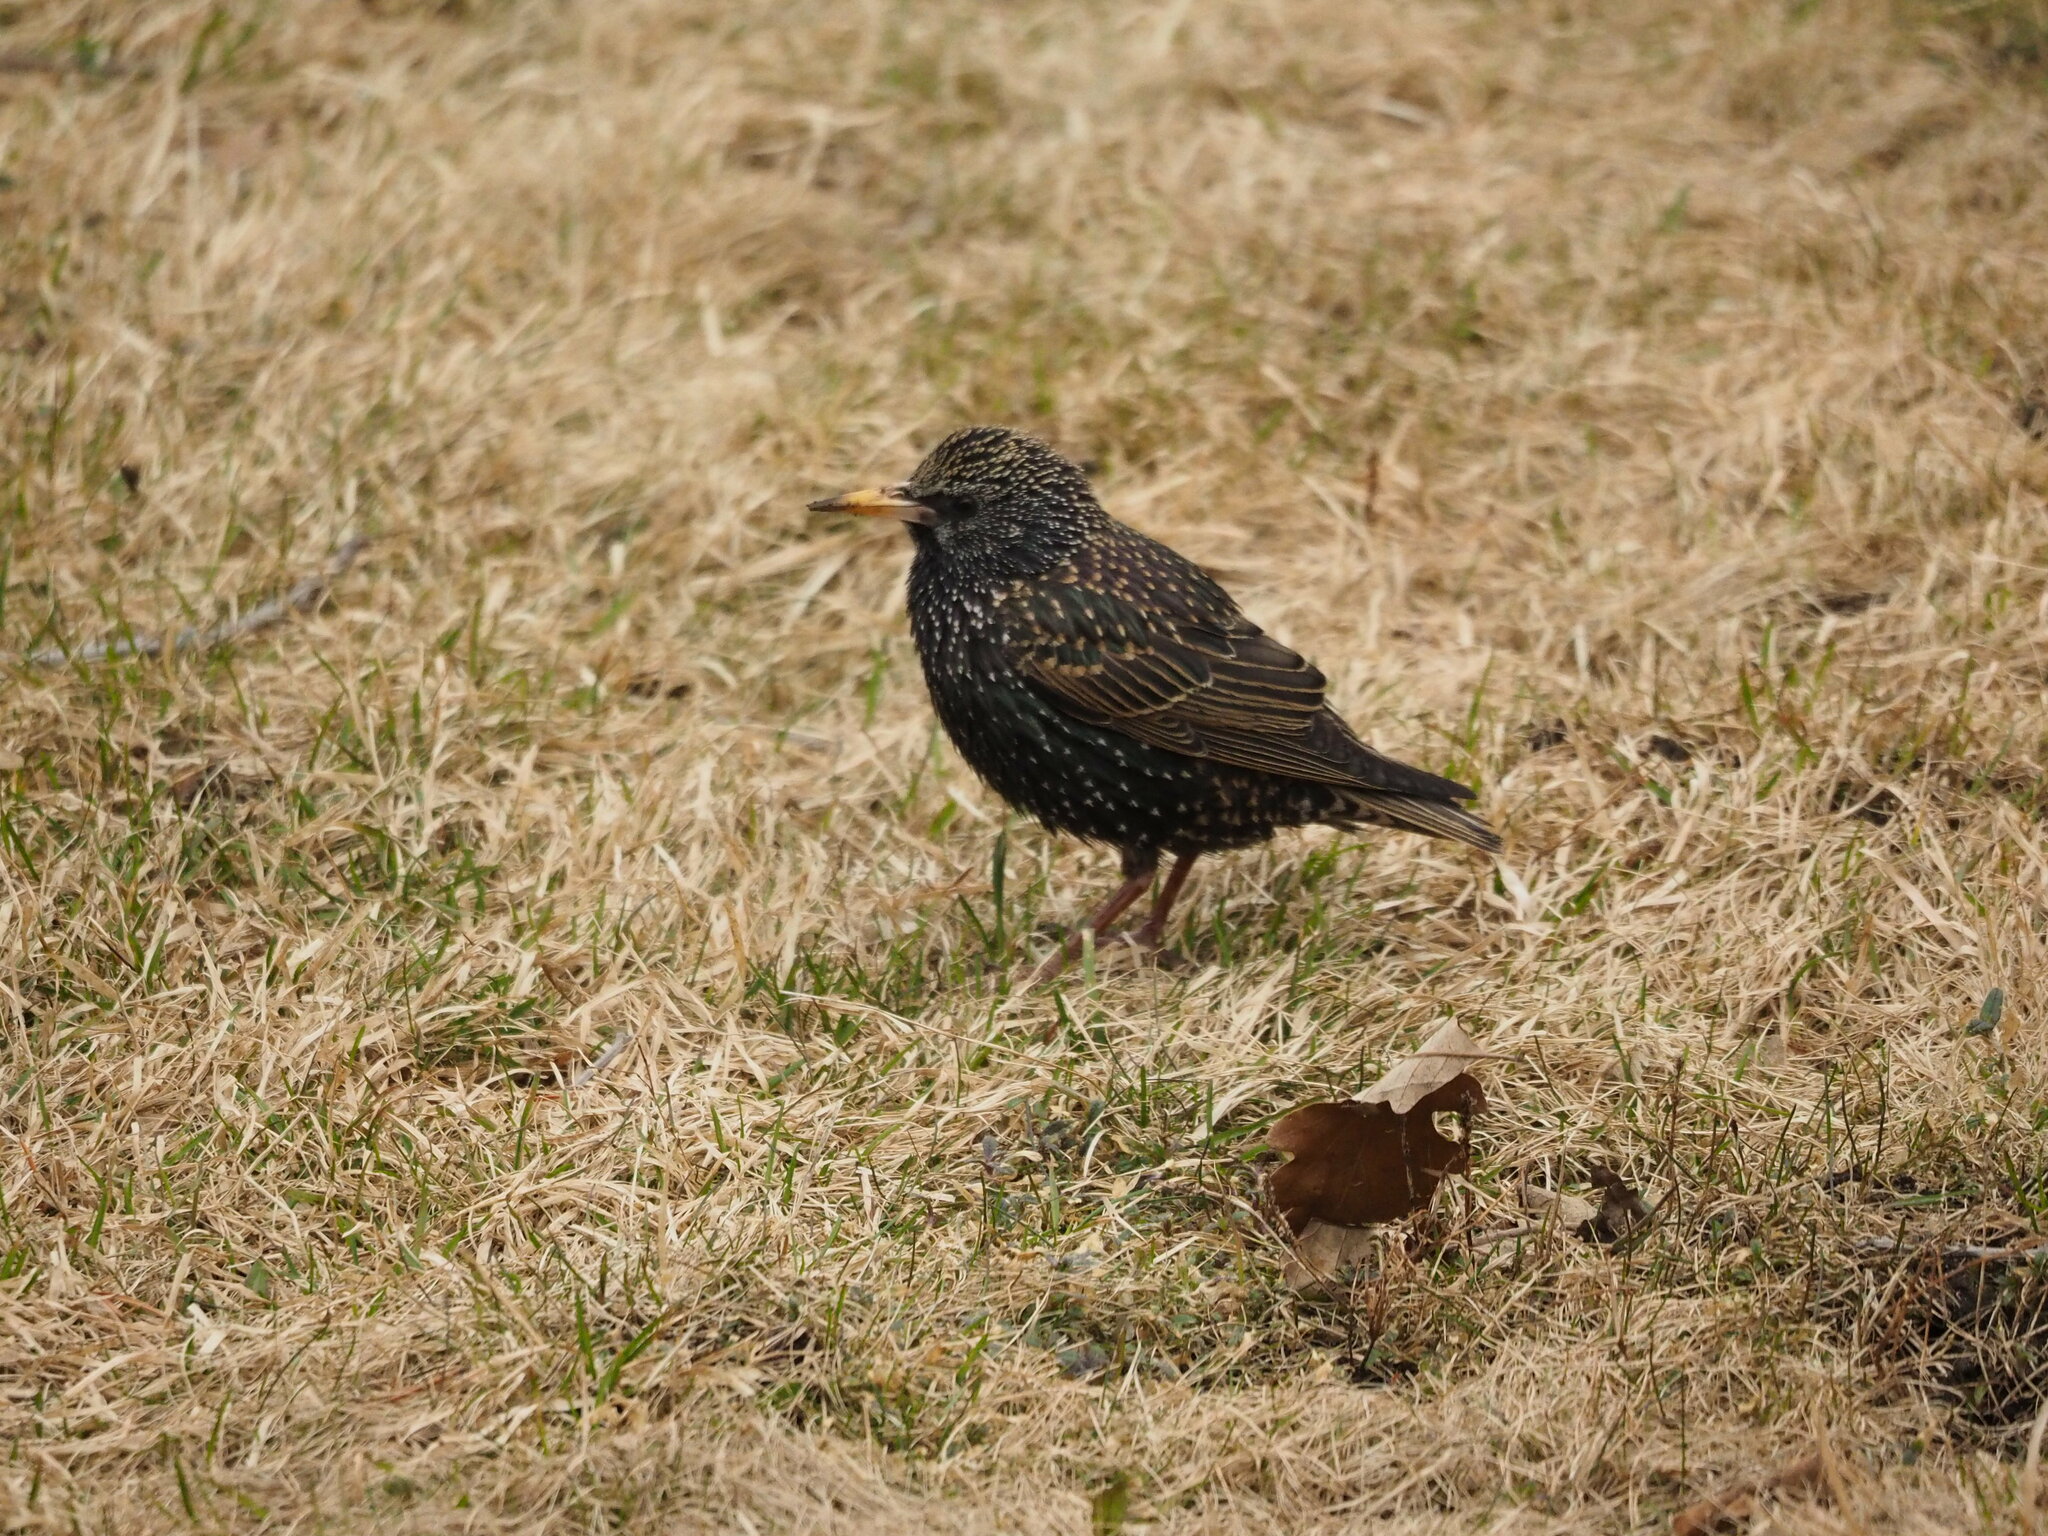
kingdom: Animalia
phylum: Chordata
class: Aves
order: Passeriformes
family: Sturnidae
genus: Sturnus
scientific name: Sturnus vulgaris
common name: Common starling
